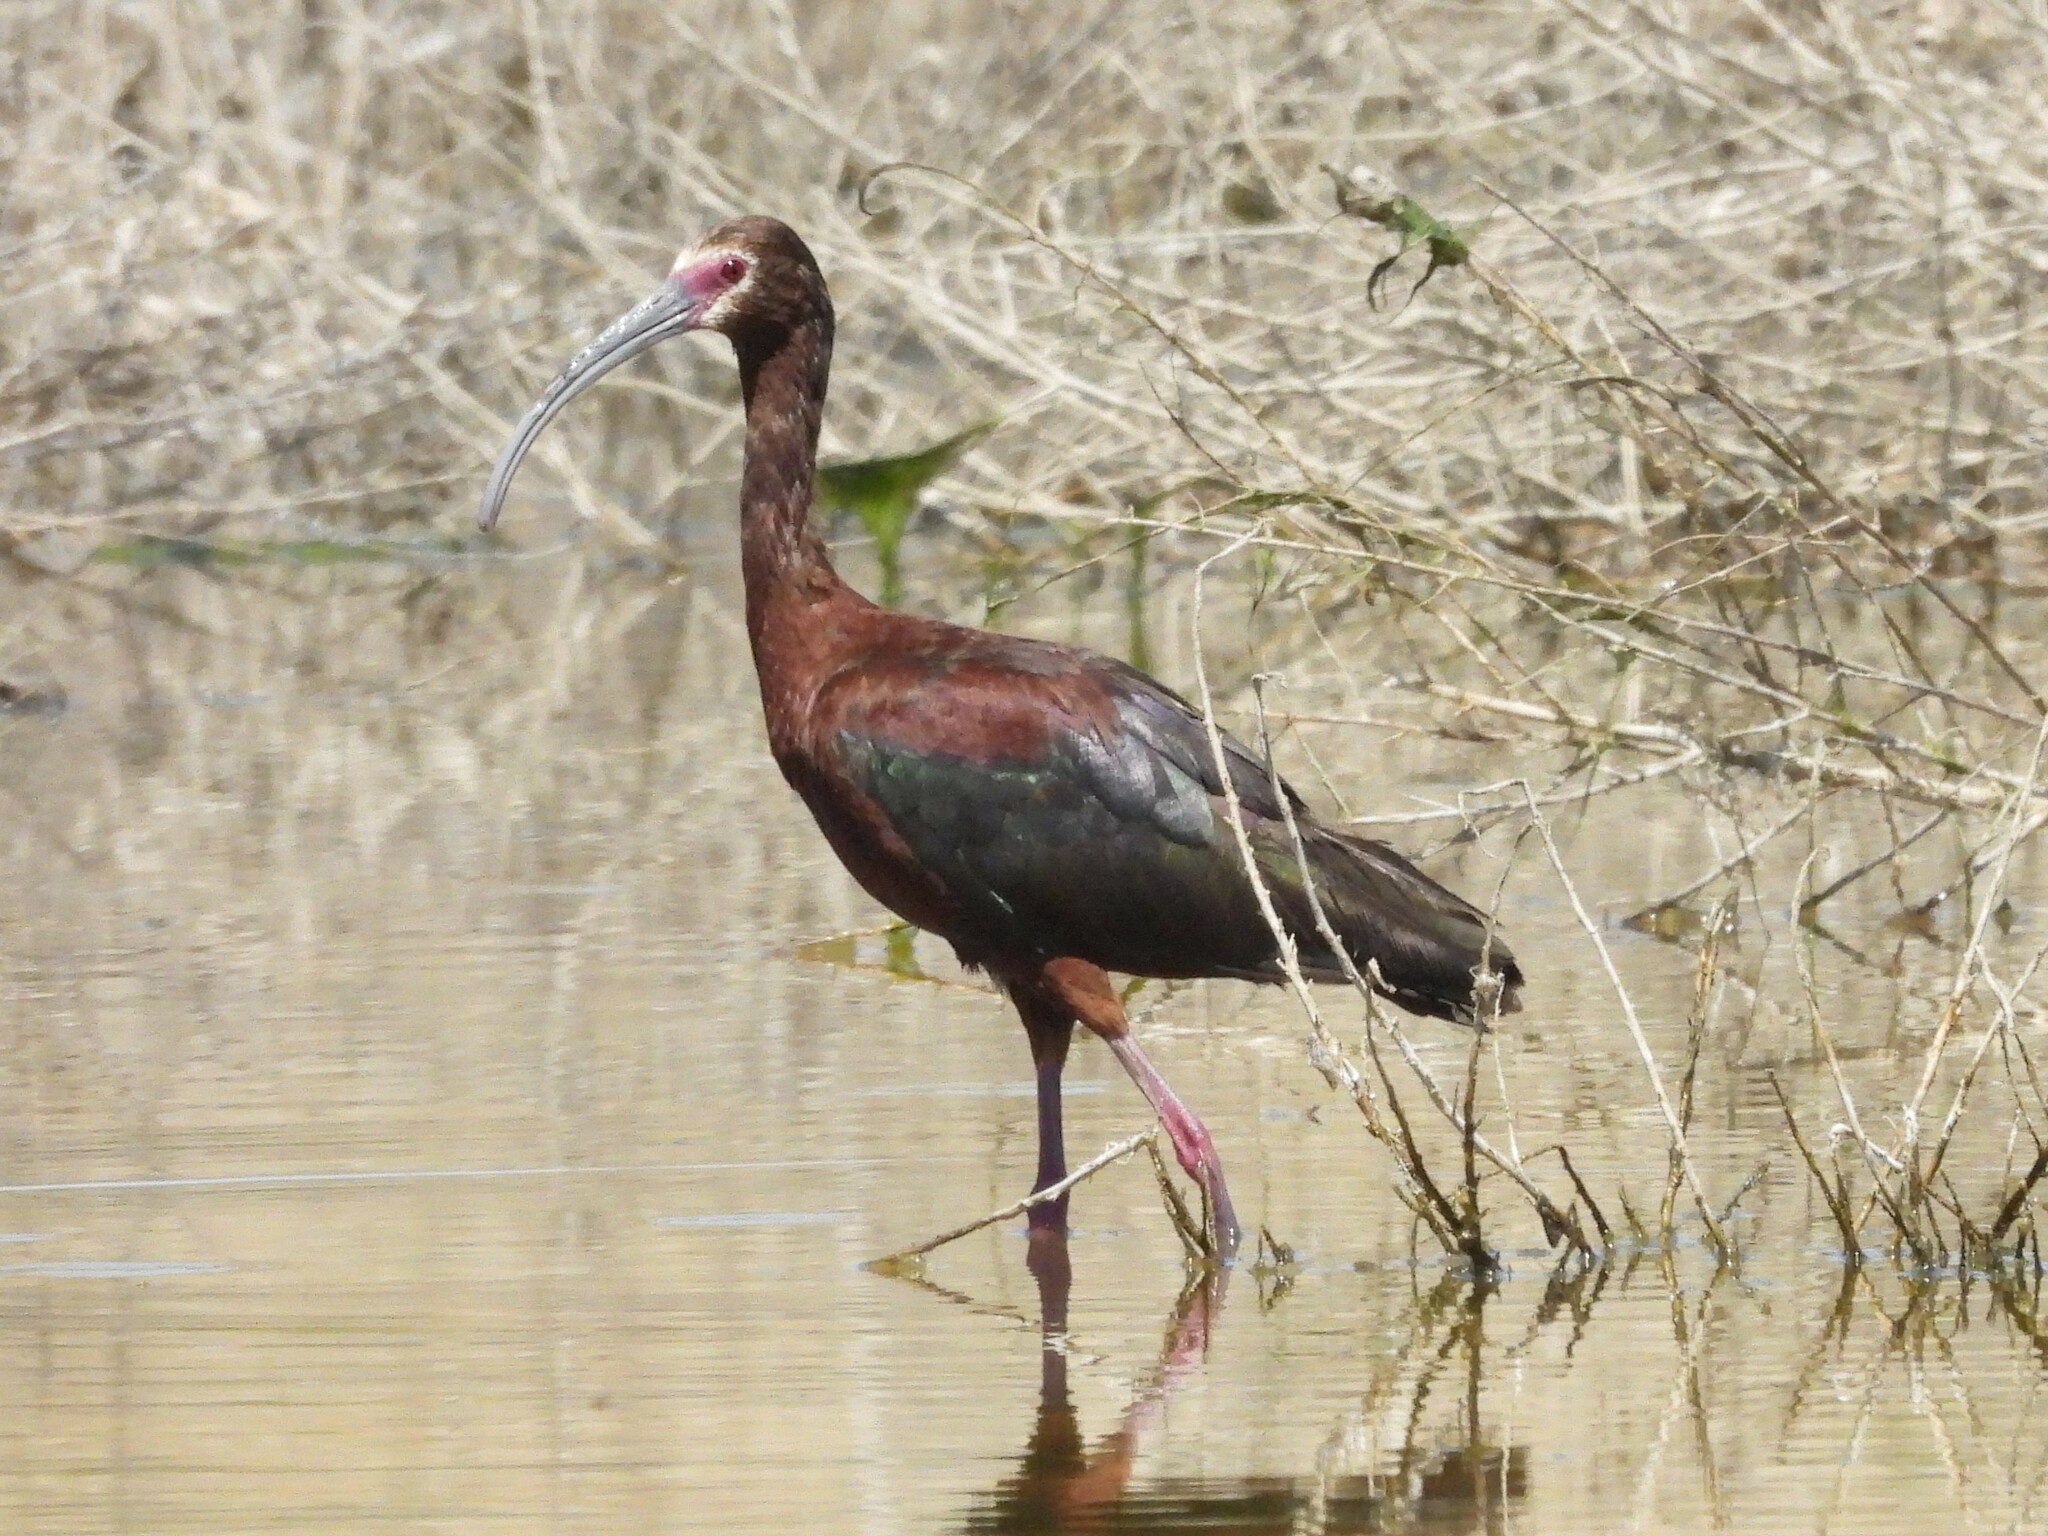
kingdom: Animalia
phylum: Chordata
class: Aves
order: Pelecaniformes
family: Threskiornithidae
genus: Plegadis
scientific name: Plegadis chihi
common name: White-faced ibis
